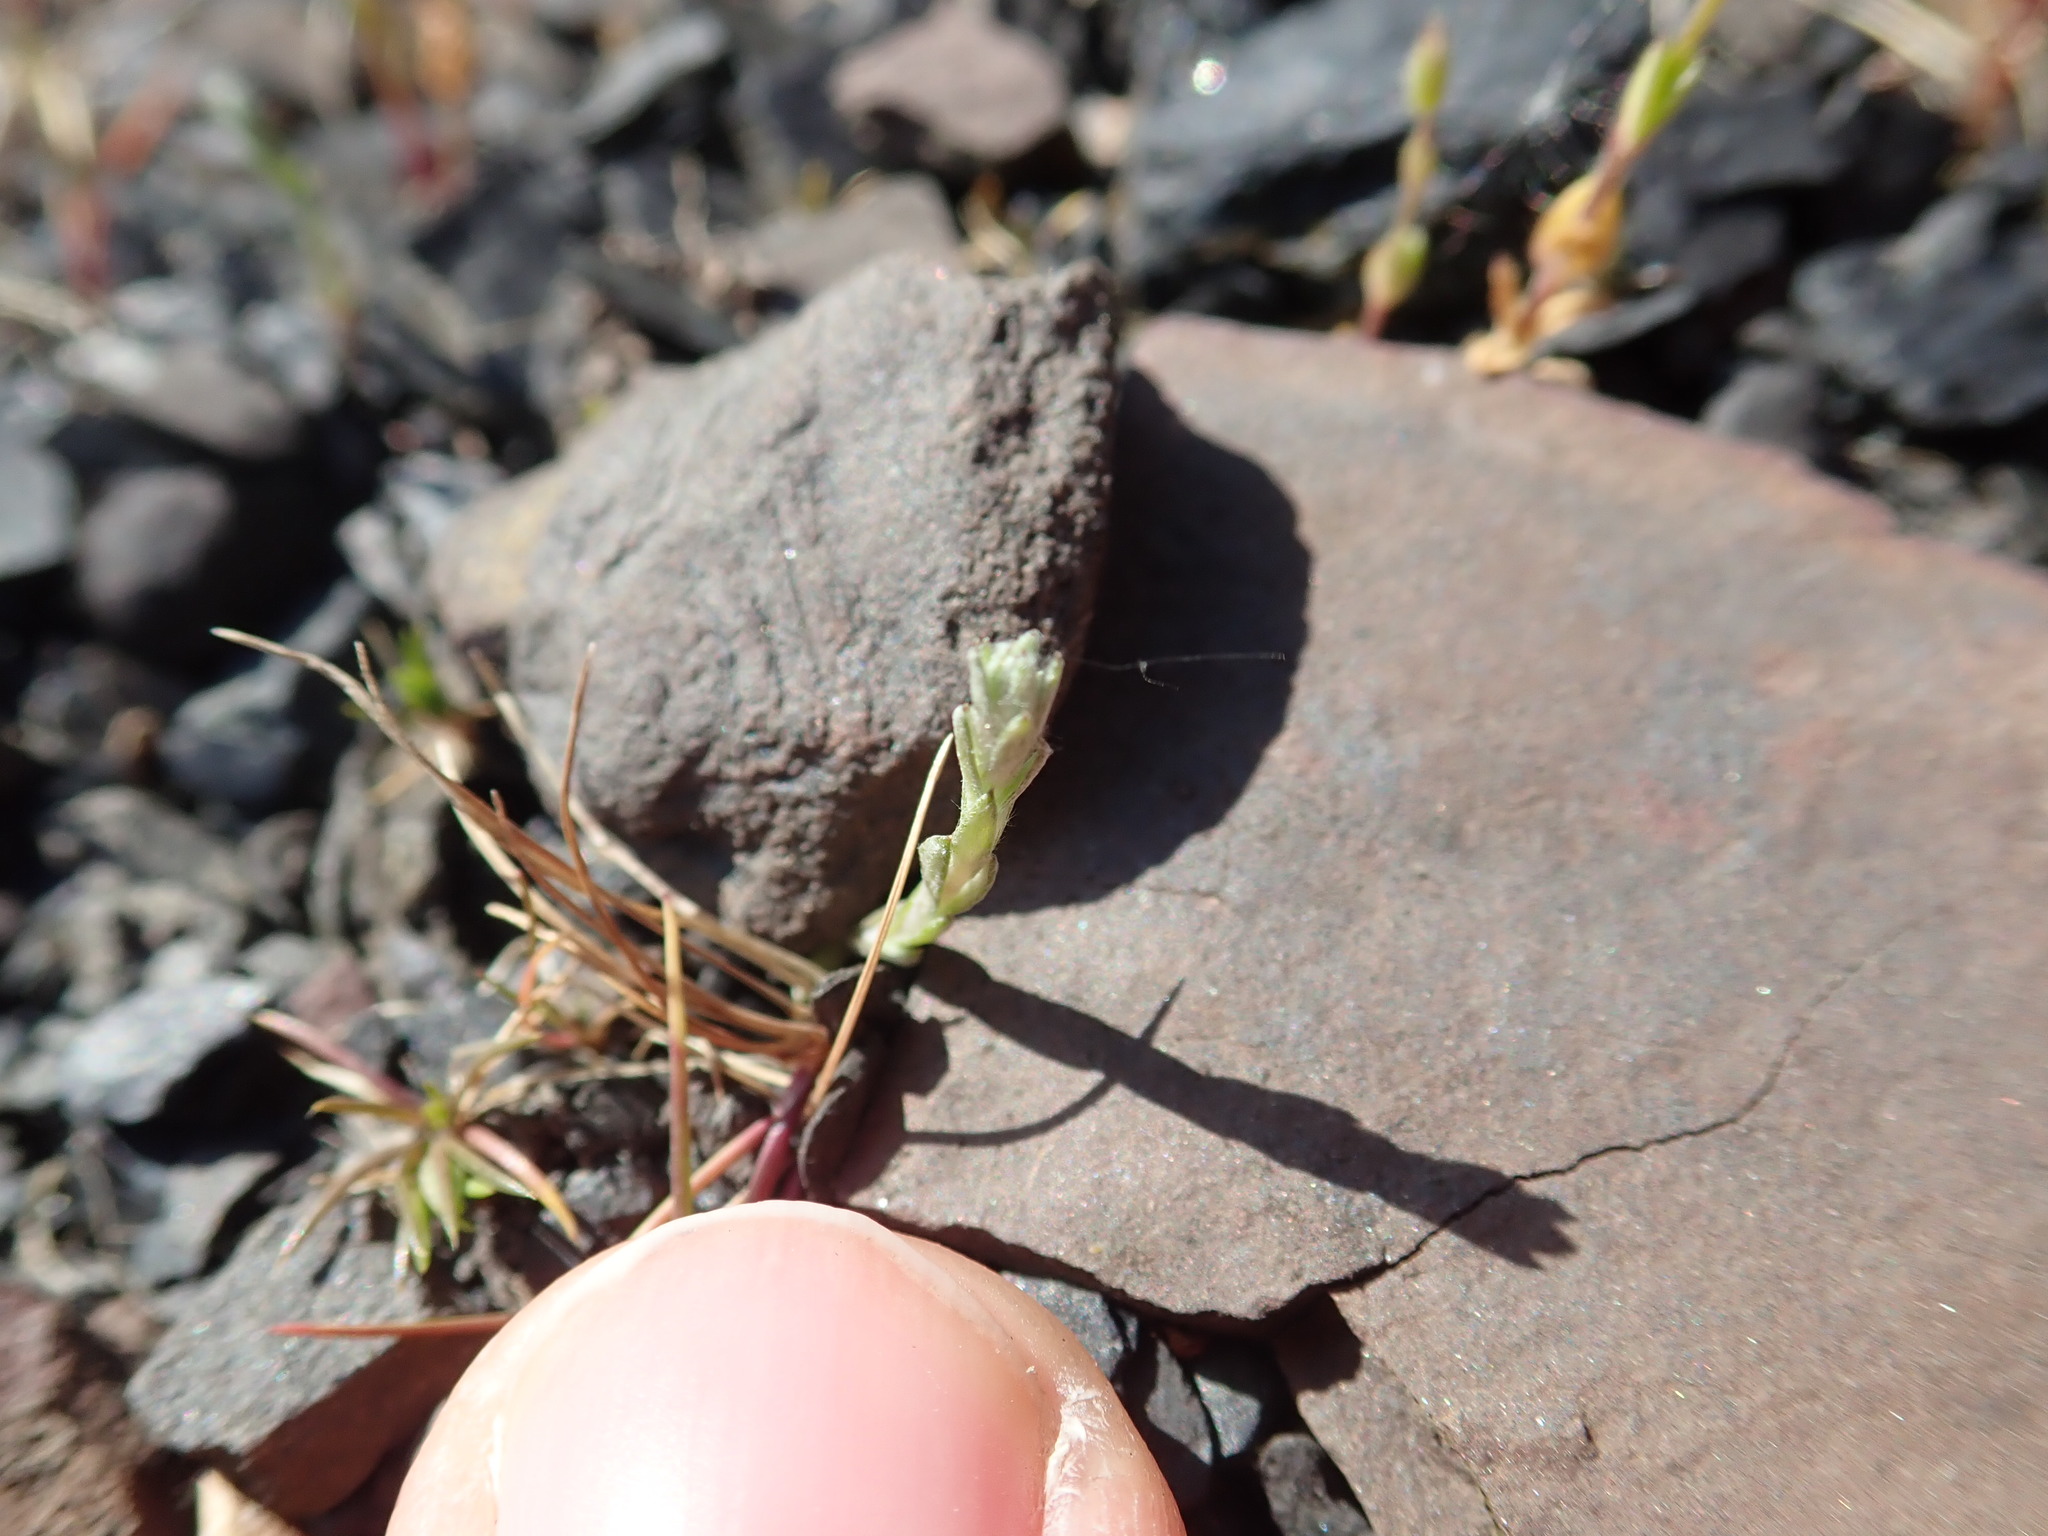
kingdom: Plantae
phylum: Tracheophyta
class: Magnoliopsida
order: Asterales
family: Asteraceae
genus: Logfia
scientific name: Logfia minima
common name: Little cottonrose
